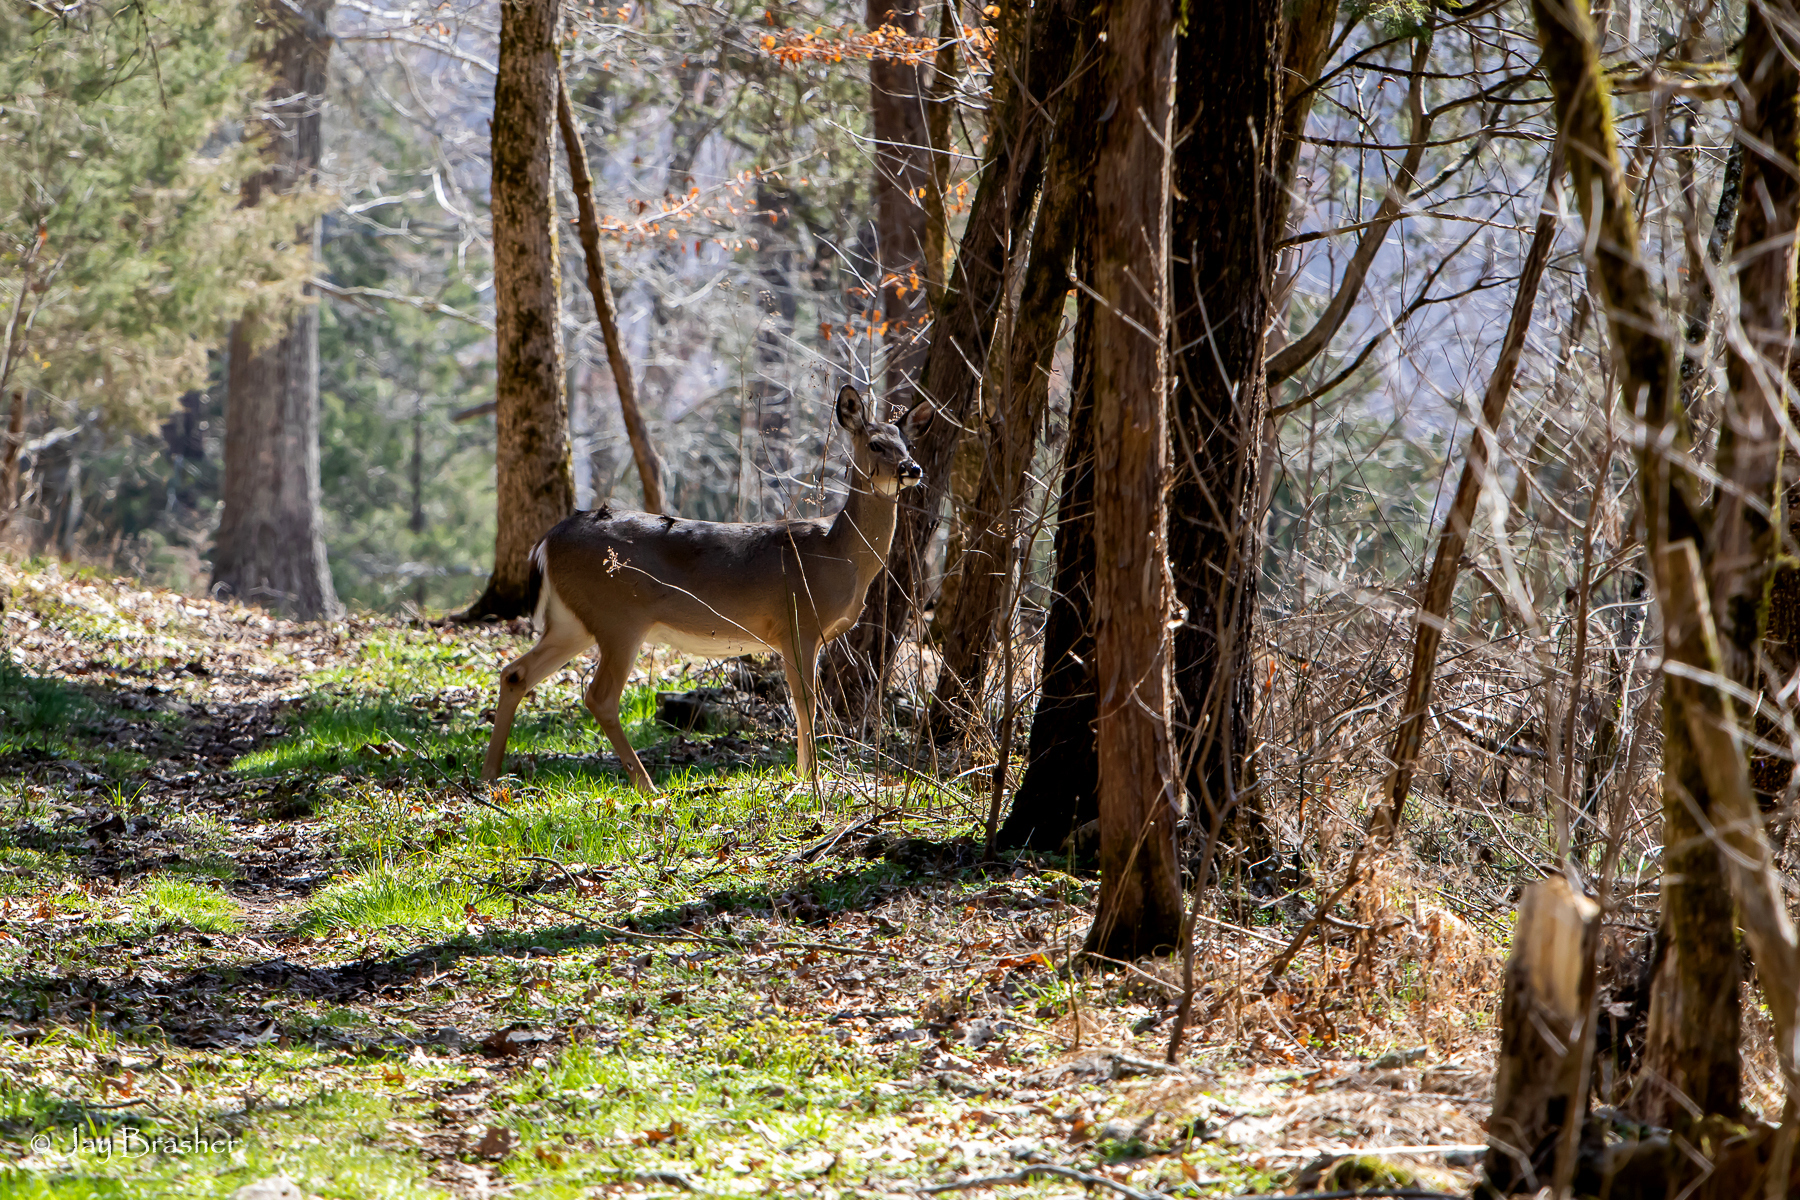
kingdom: Animalia
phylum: Chordata
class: Mammalia
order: Artiodactyla
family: Cervidae
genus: Odocoileus
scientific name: Odocoileus virginianus
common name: White-tailed deer
